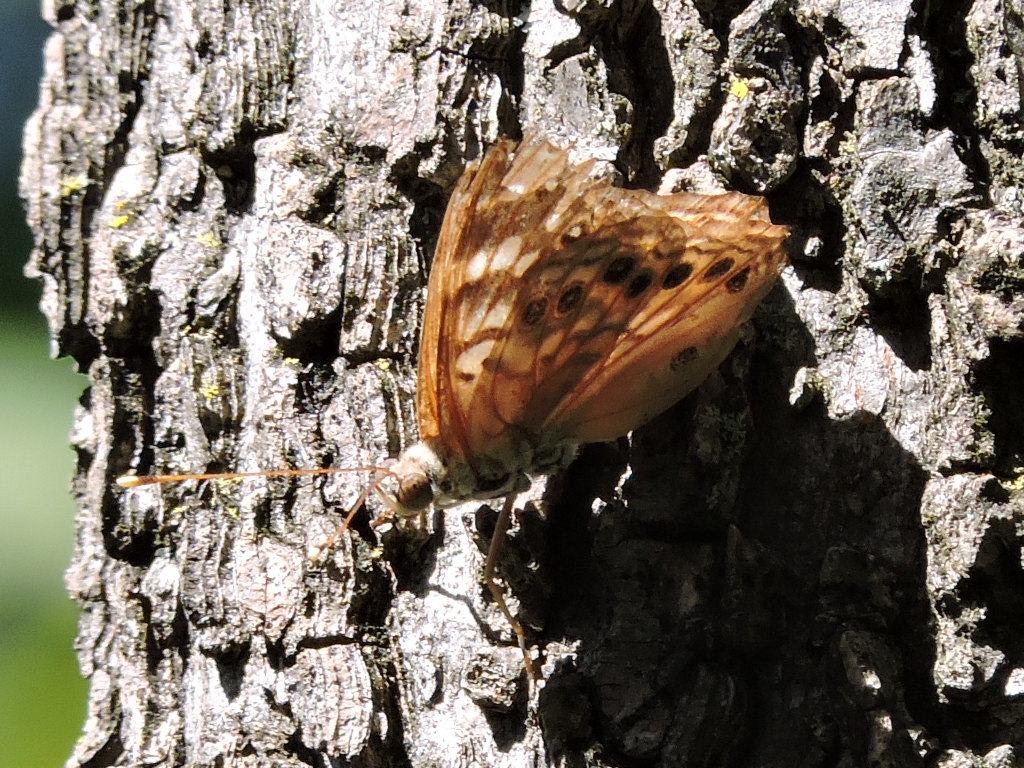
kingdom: Animalia
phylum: Arthropoda
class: Insecta
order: Lepidoptera
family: Nymphalidae
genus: Asterocampa
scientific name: Asterocampa celtis
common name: Hackberry emperor
